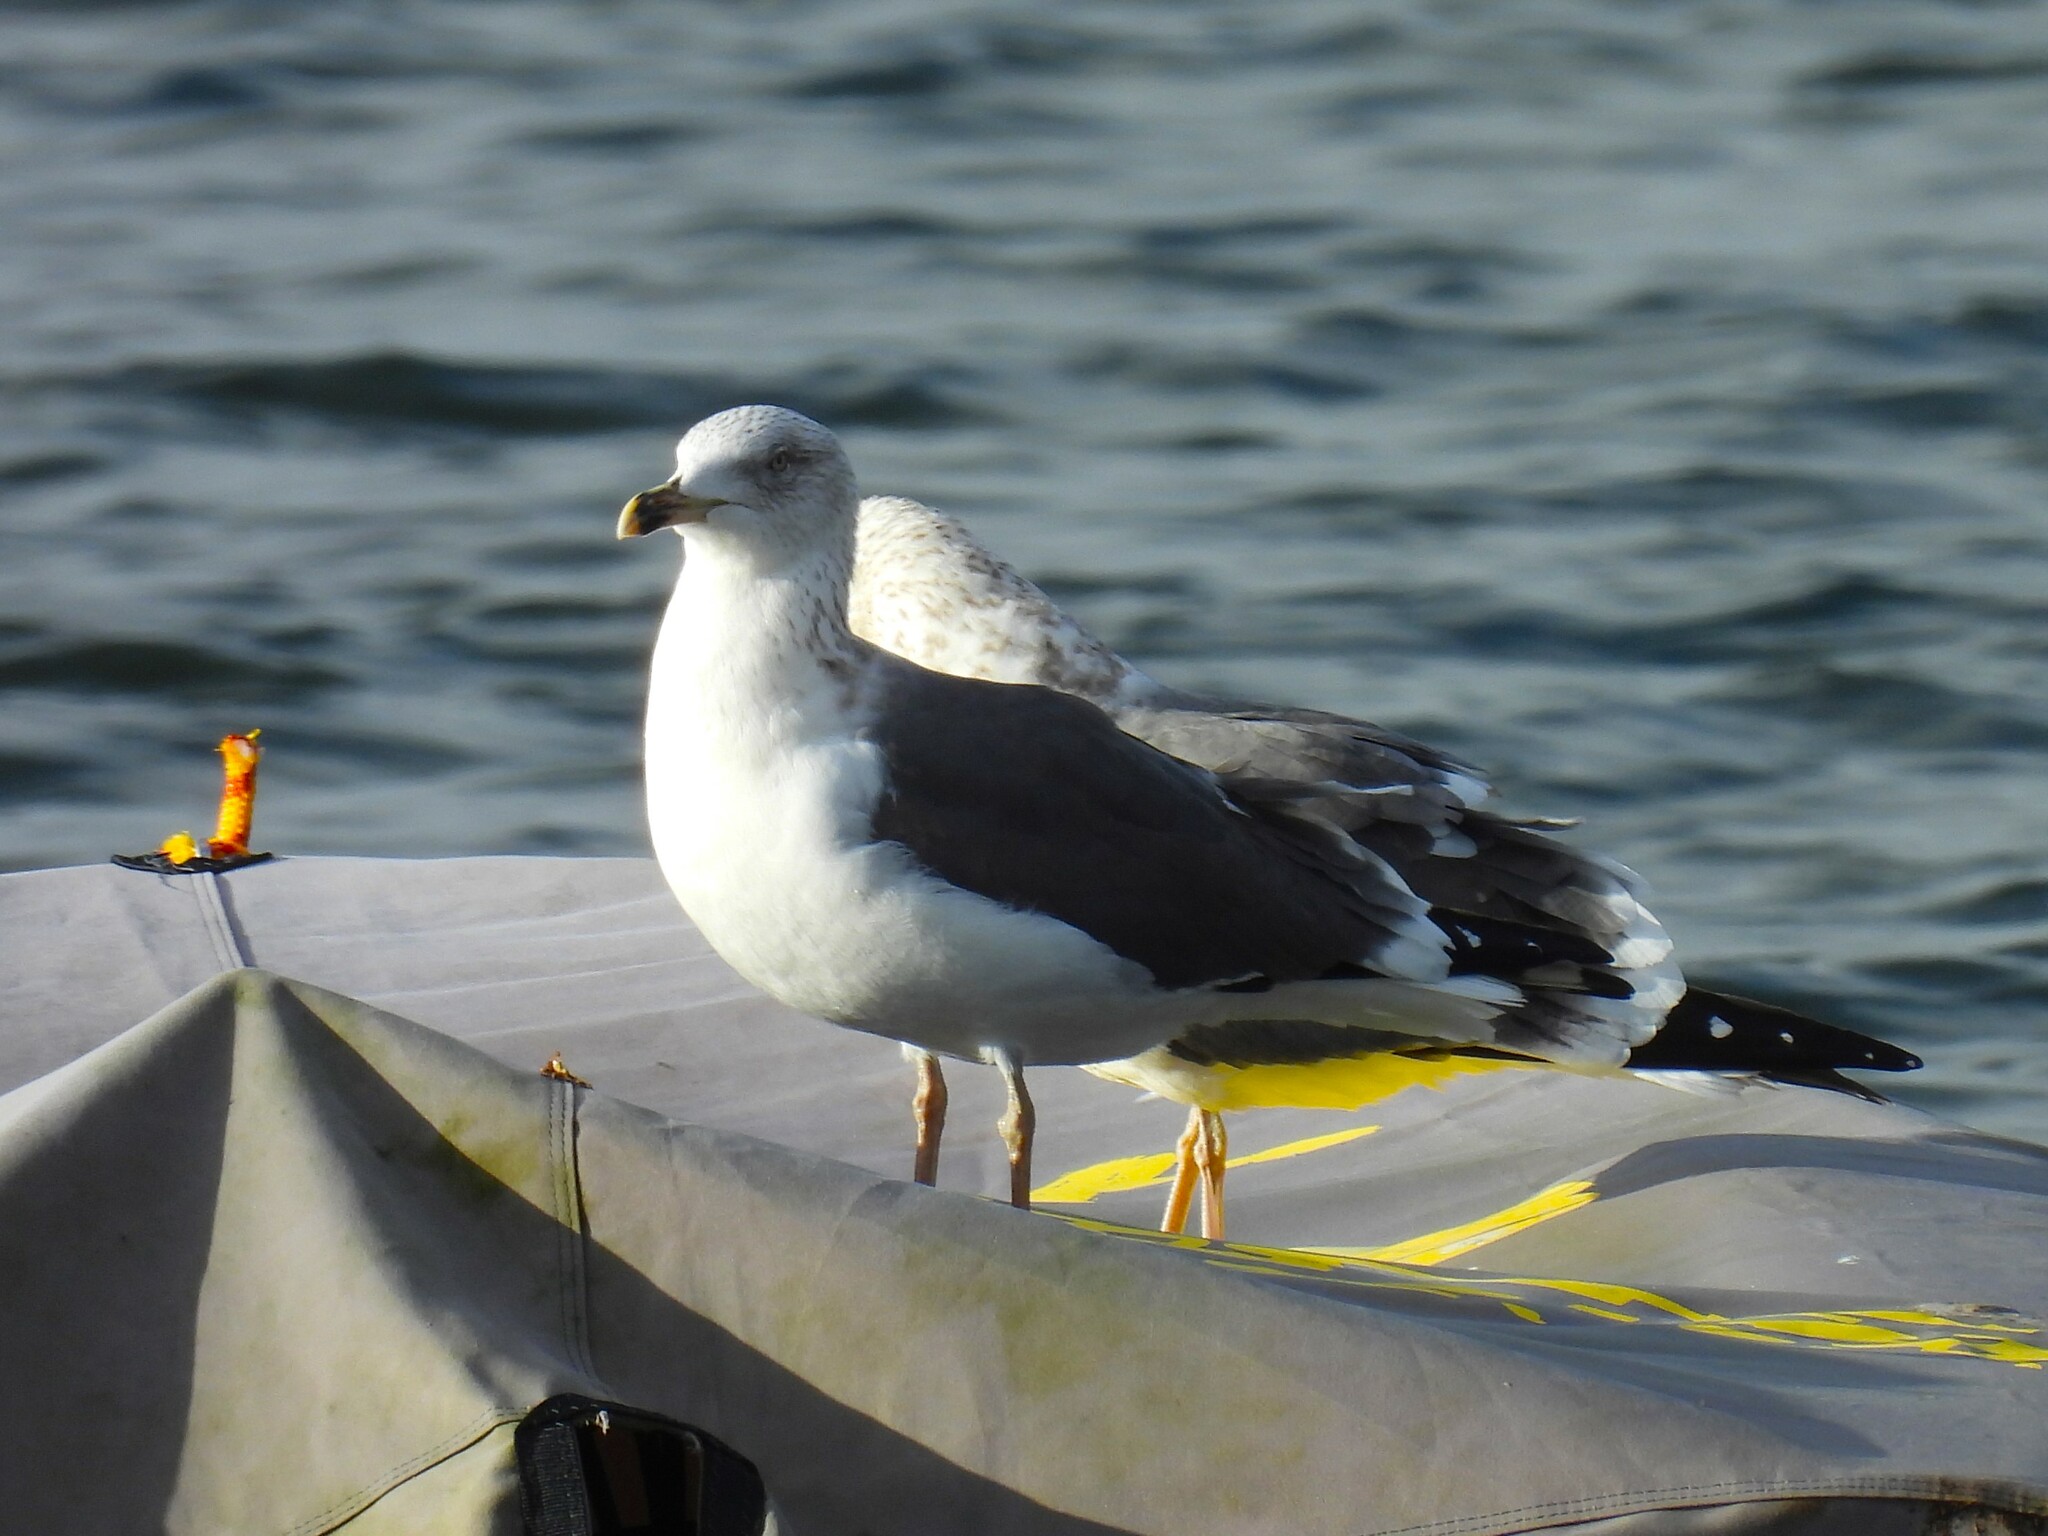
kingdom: Animalia
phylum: Chordata
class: Aves
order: Charadriiformes
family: Laridae
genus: Larus
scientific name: Larus fuscus
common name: Lesser black-backed gull
